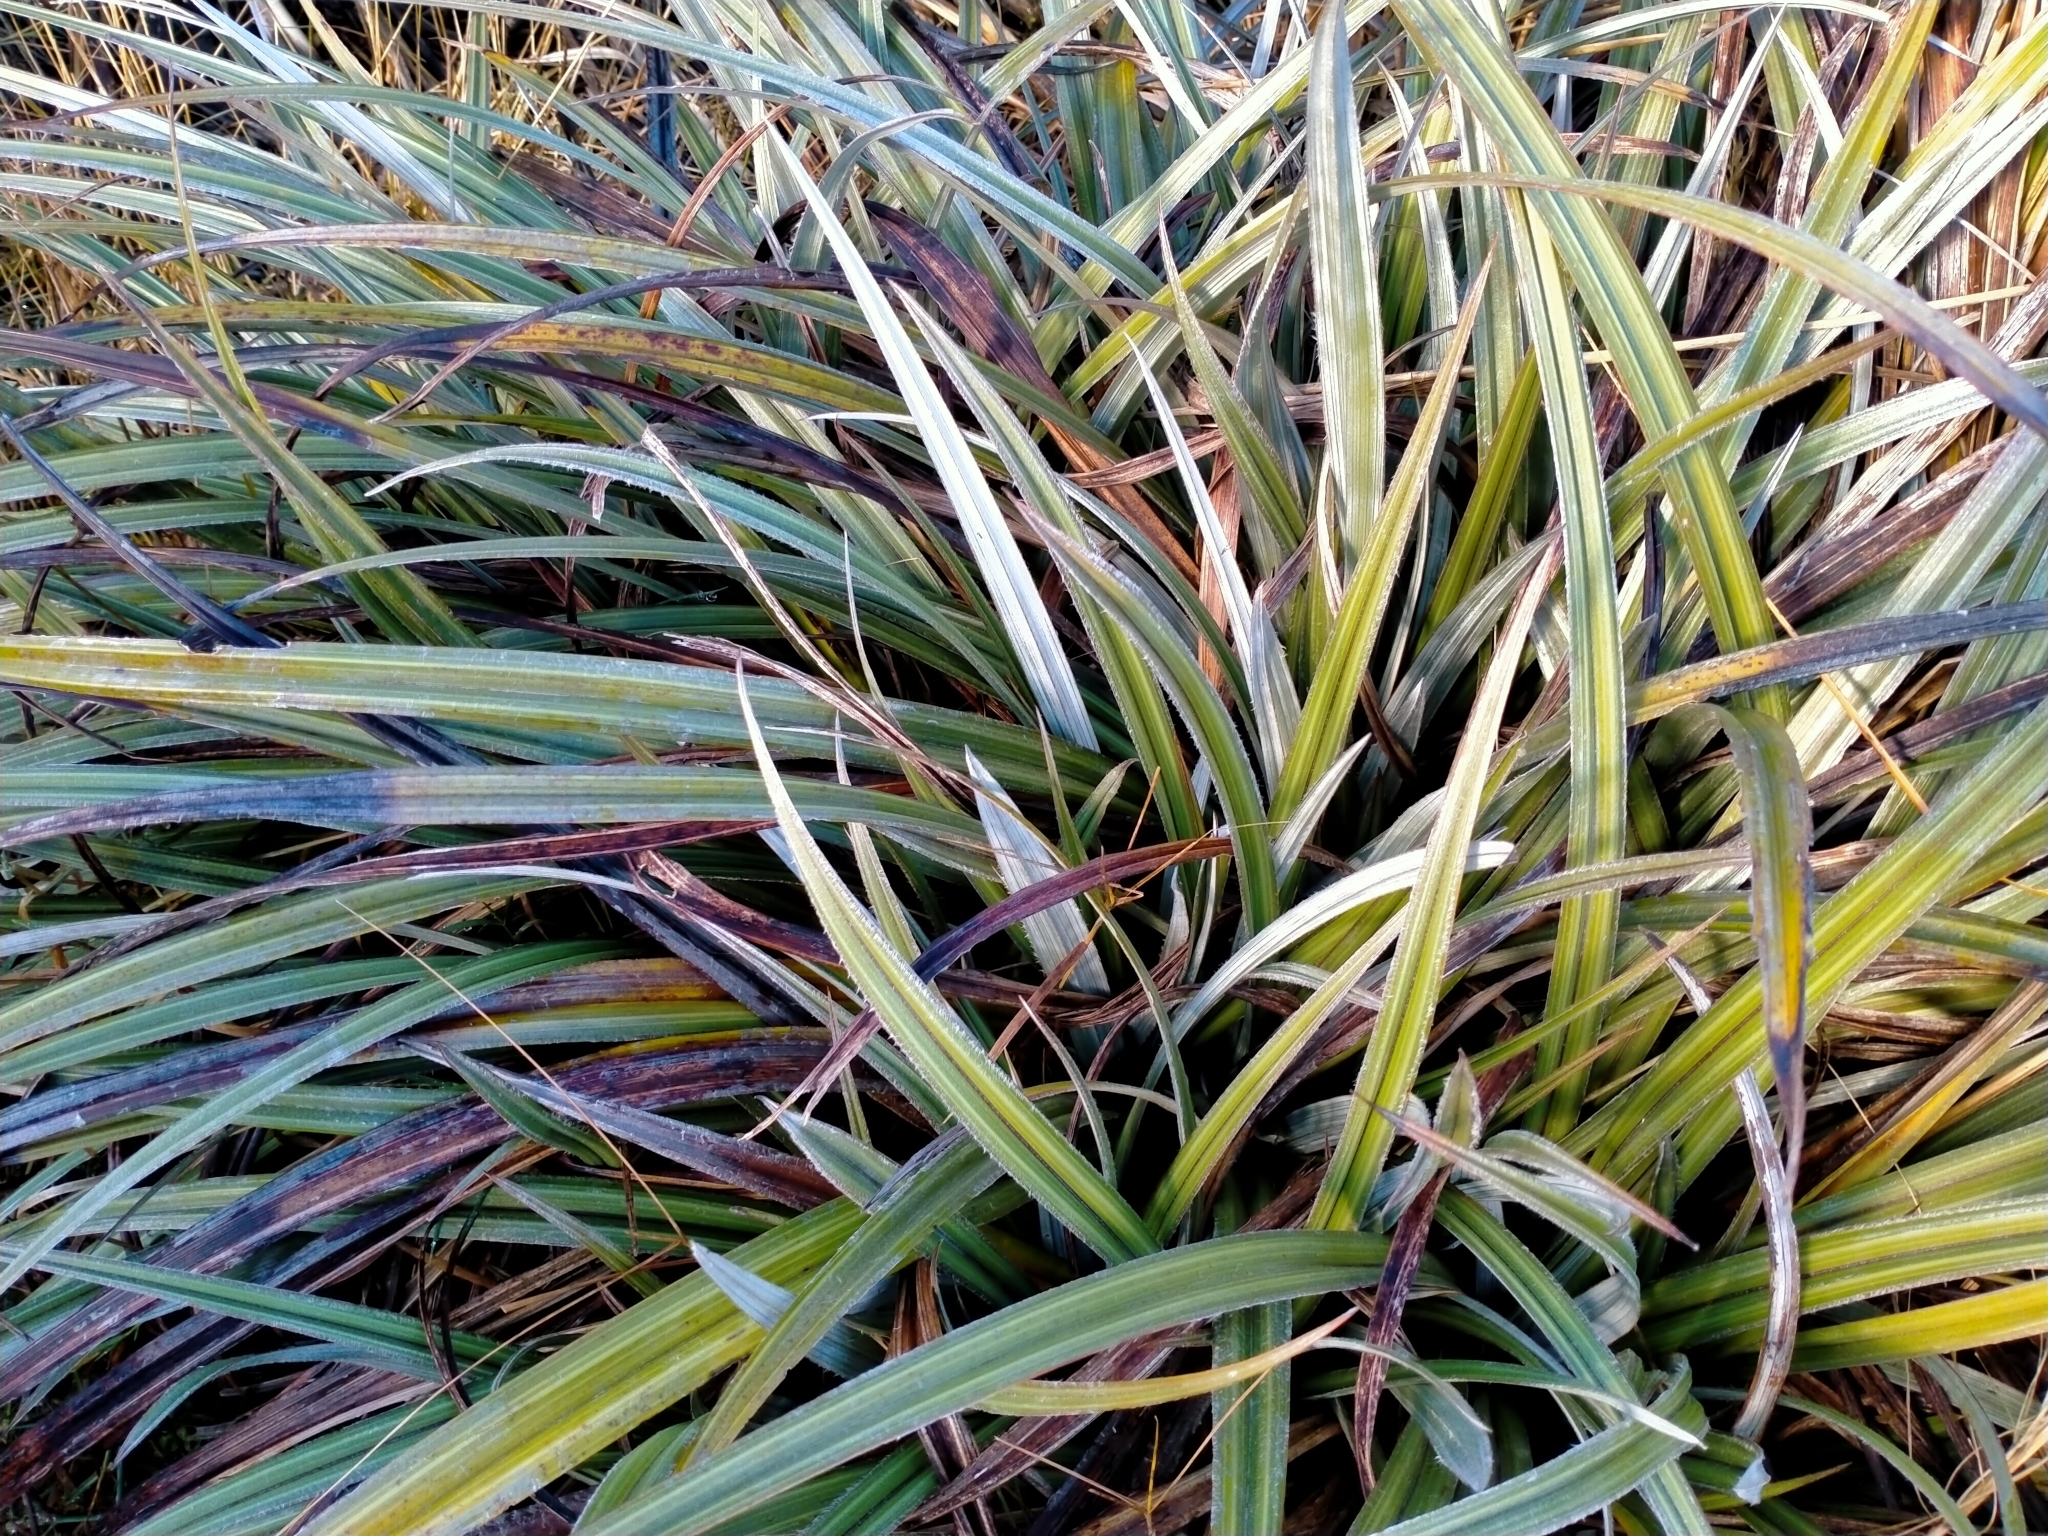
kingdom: Plantae
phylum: Tracheophyta
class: Liliopsida
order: Asparagales
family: Asteliaceae
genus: Astelia
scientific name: Astelia nervosa
